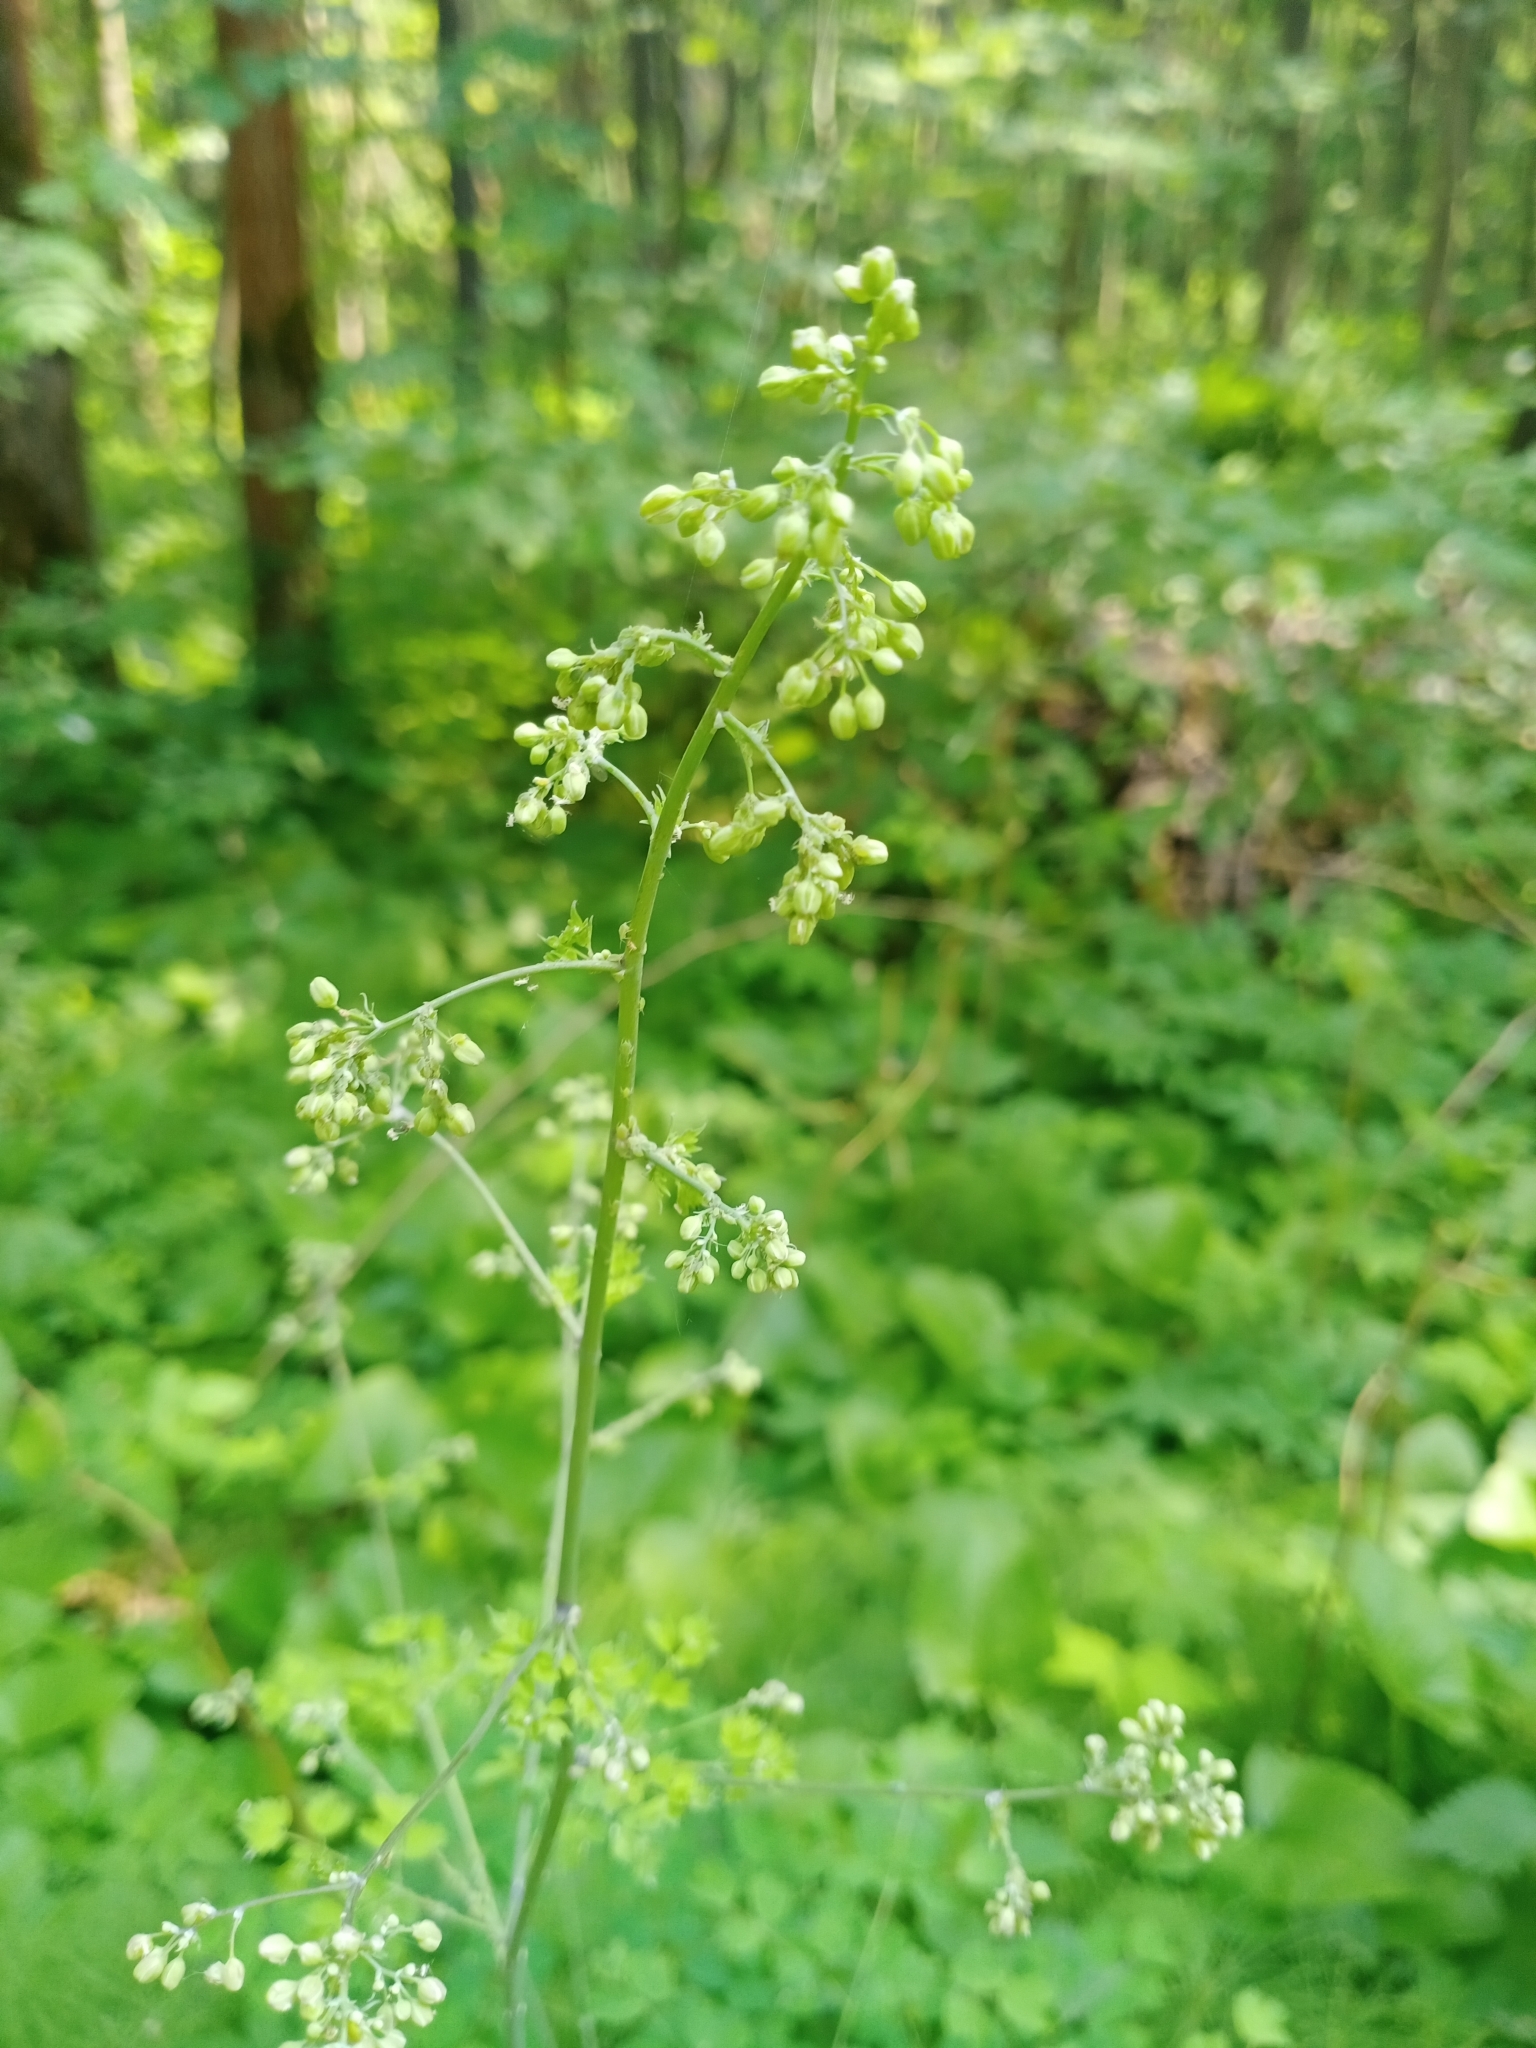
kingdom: Plantae
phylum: Tracheophyta
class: Magnoliopsida
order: Ranunculales
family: Ranunculaceae
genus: Thalictrum
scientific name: Thalictrum minus
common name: Lesser meadow-rue
